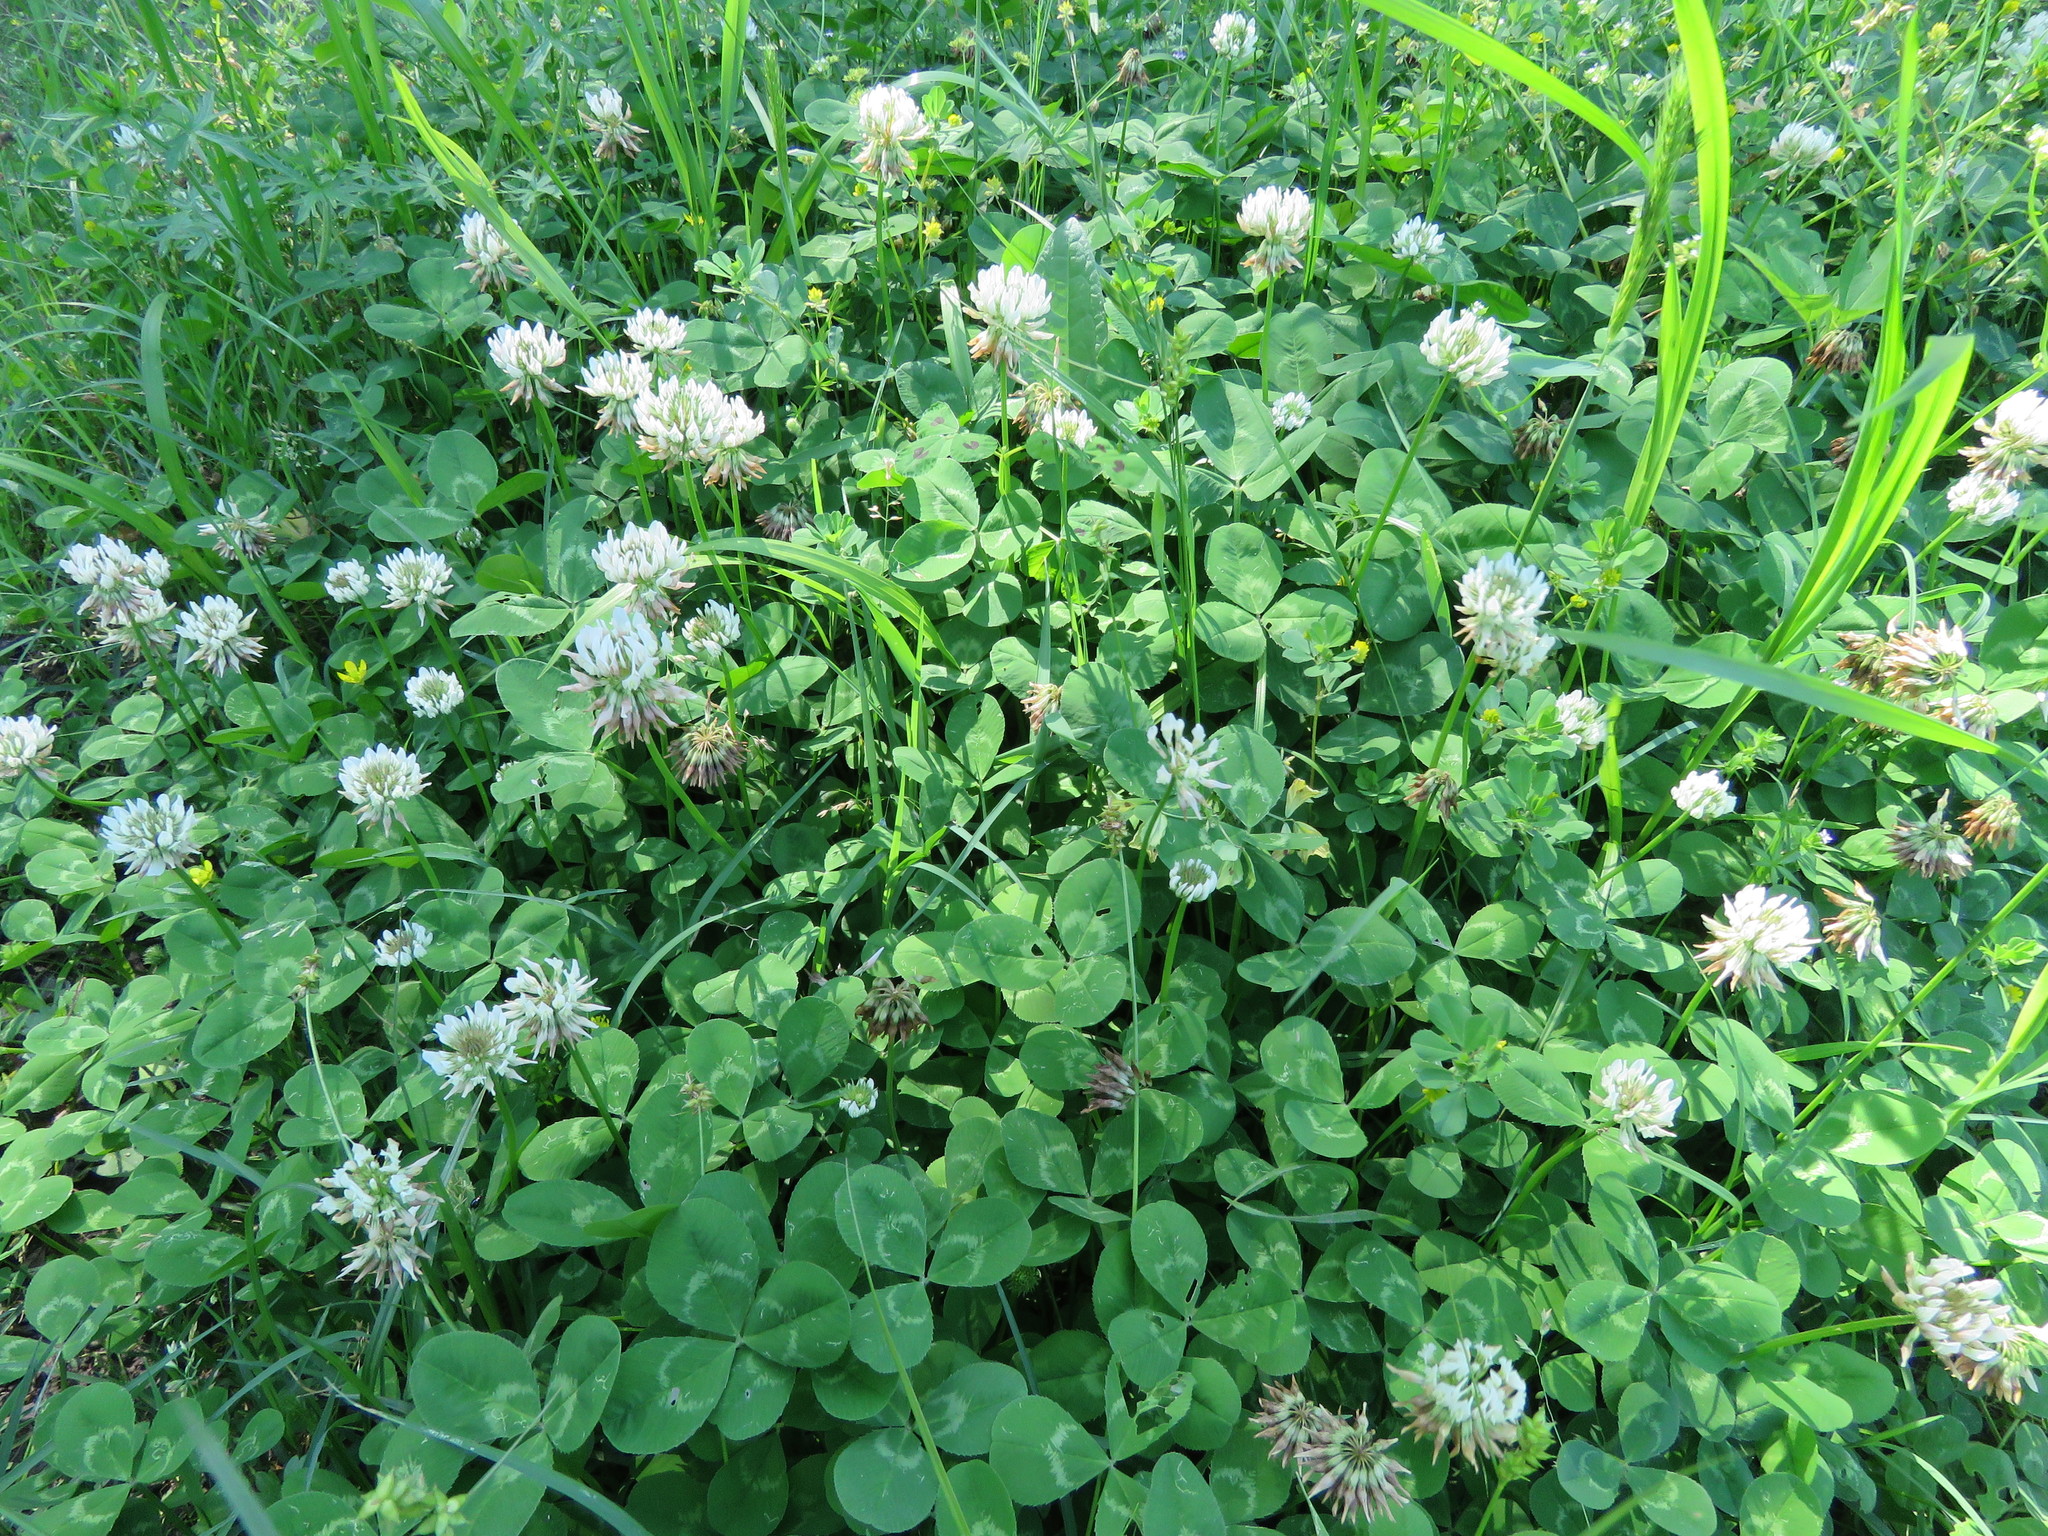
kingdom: Plantae
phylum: Tracheophyta
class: Magnoliopsida
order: Fabales
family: Fabaceae
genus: Trifolium
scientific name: Trifolium repens
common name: White clover
